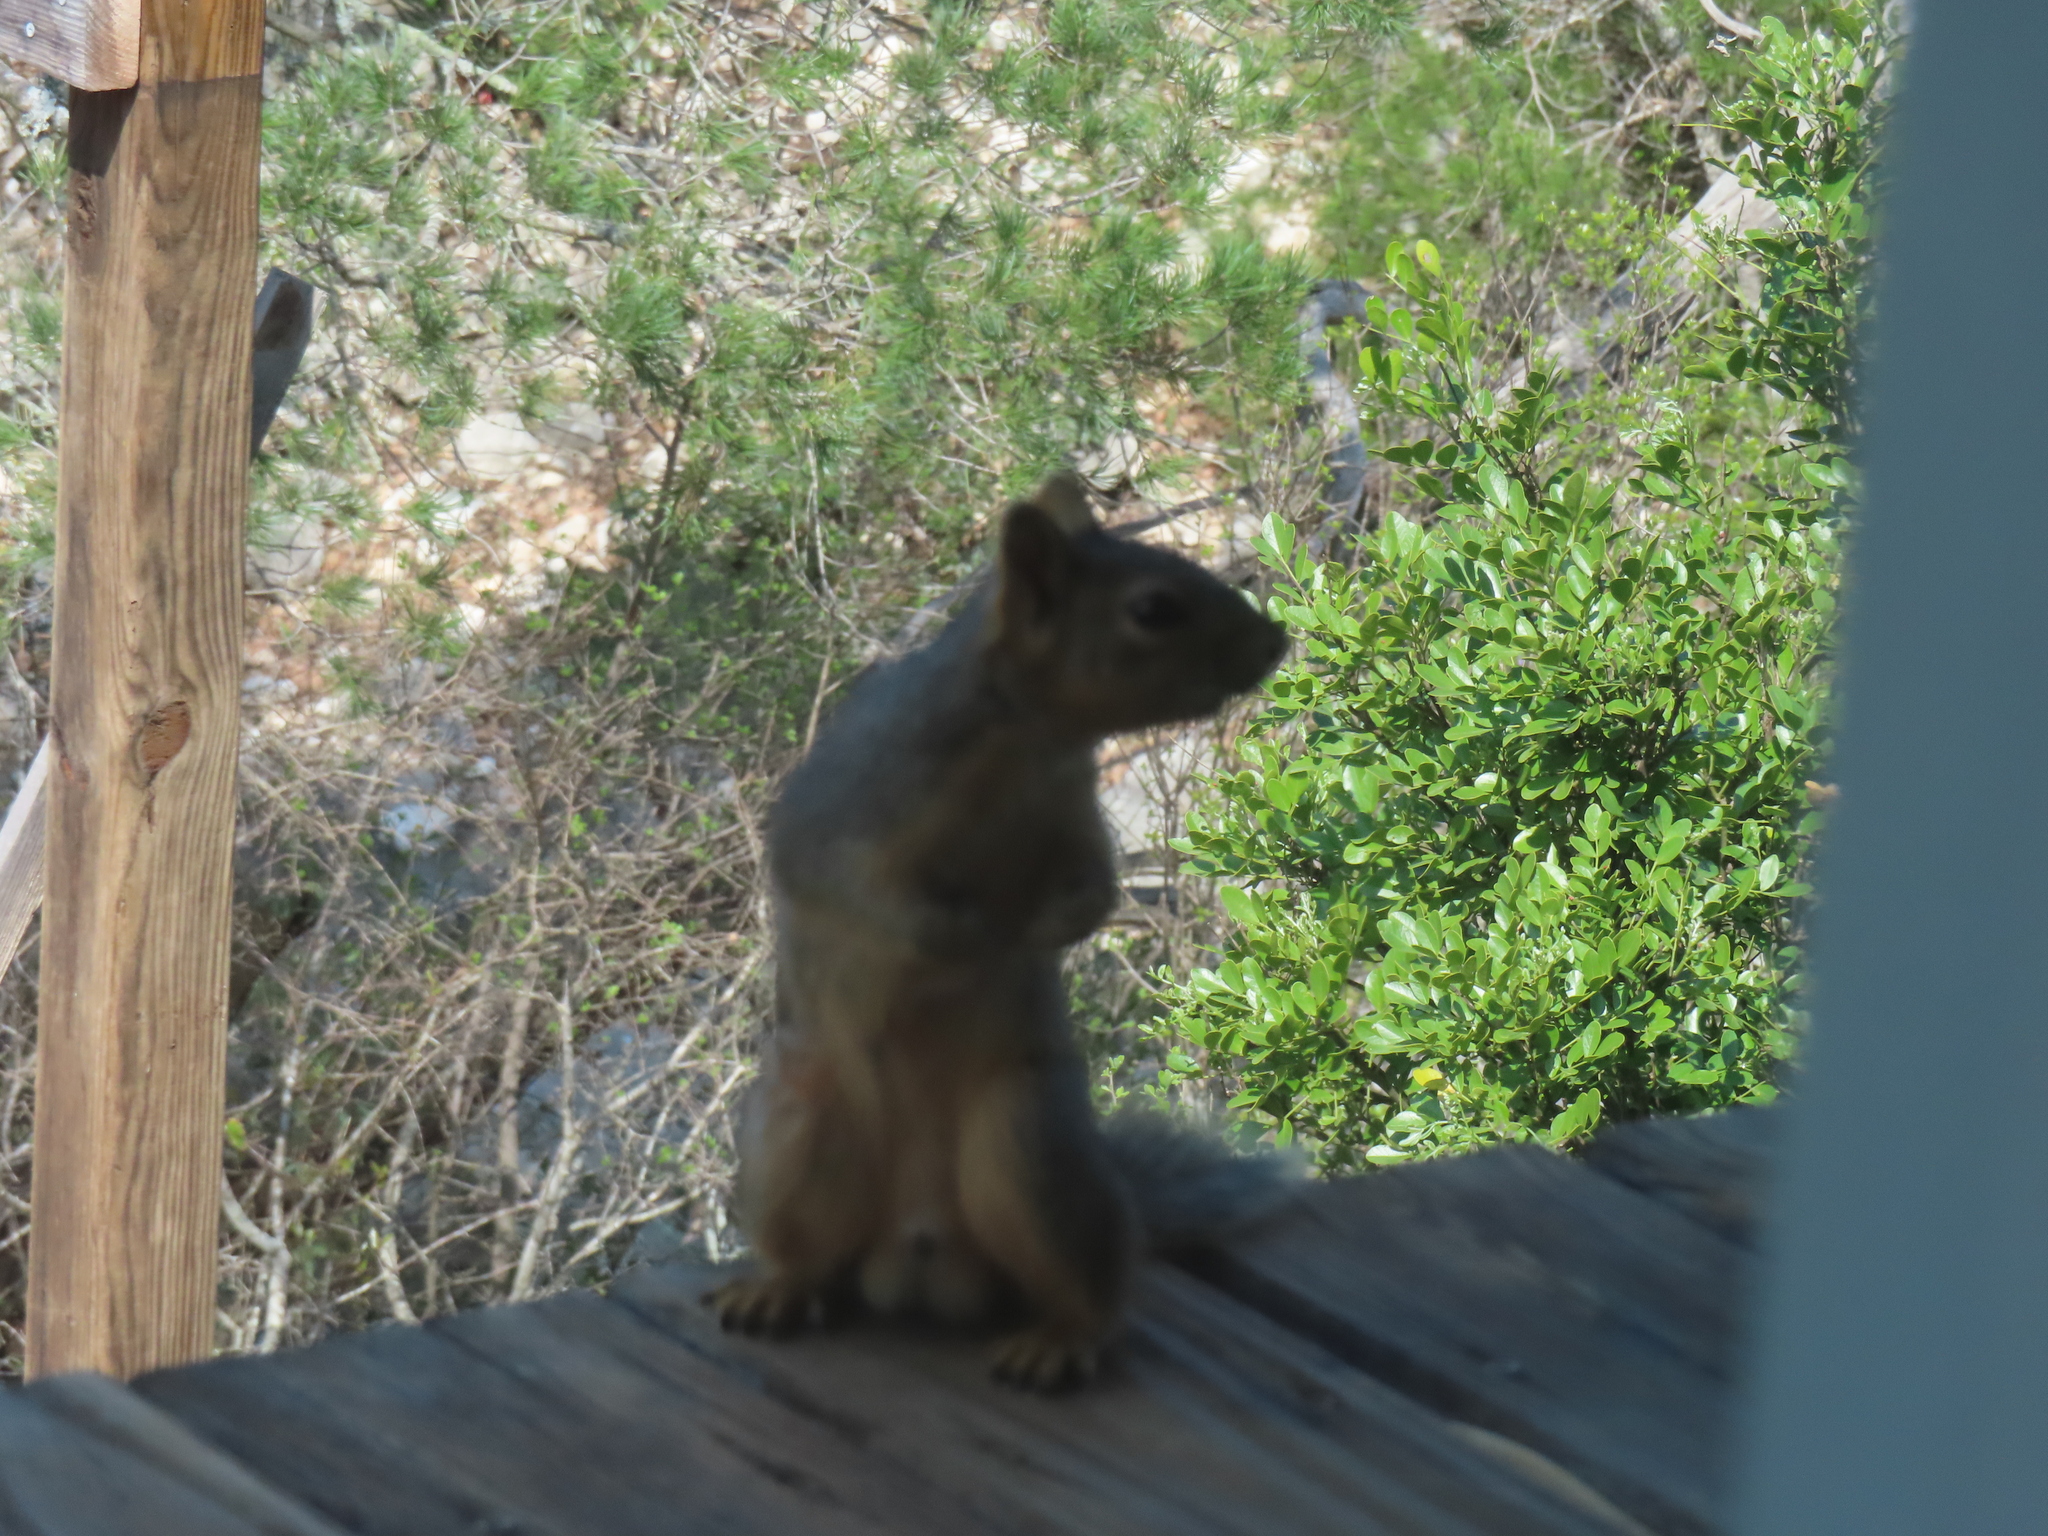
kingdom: Animalia
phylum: Chordata
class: Mammalia
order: Rodentia
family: Sciuridae
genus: Sciurus
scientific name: Sciurus niger
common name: Fox squirrel
